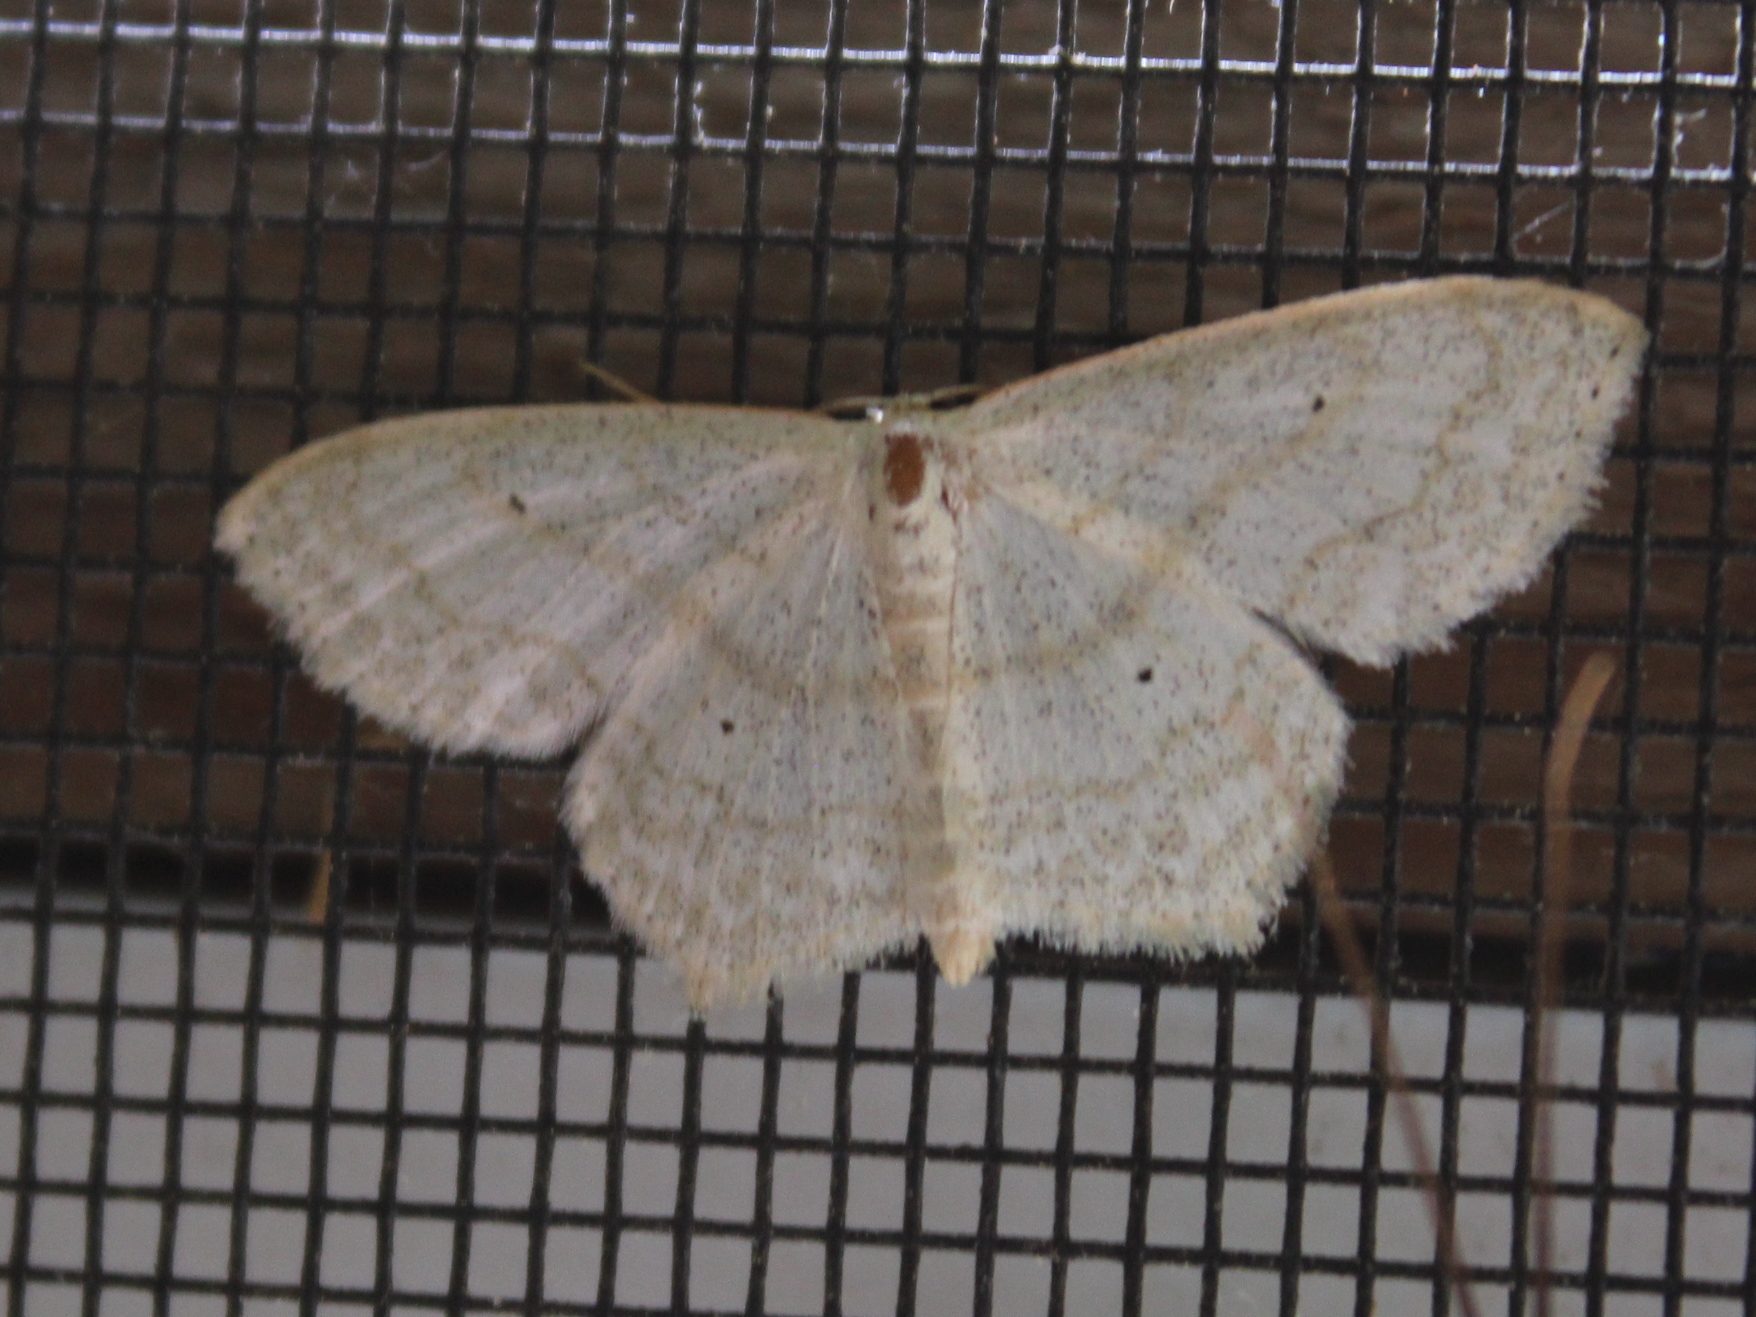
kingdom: Animalia
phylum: Arthropoda
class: Insecta
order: Lepidoptera
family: Geometridae
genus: Scopula
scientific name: Scopula limboundata
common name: Large lace border
